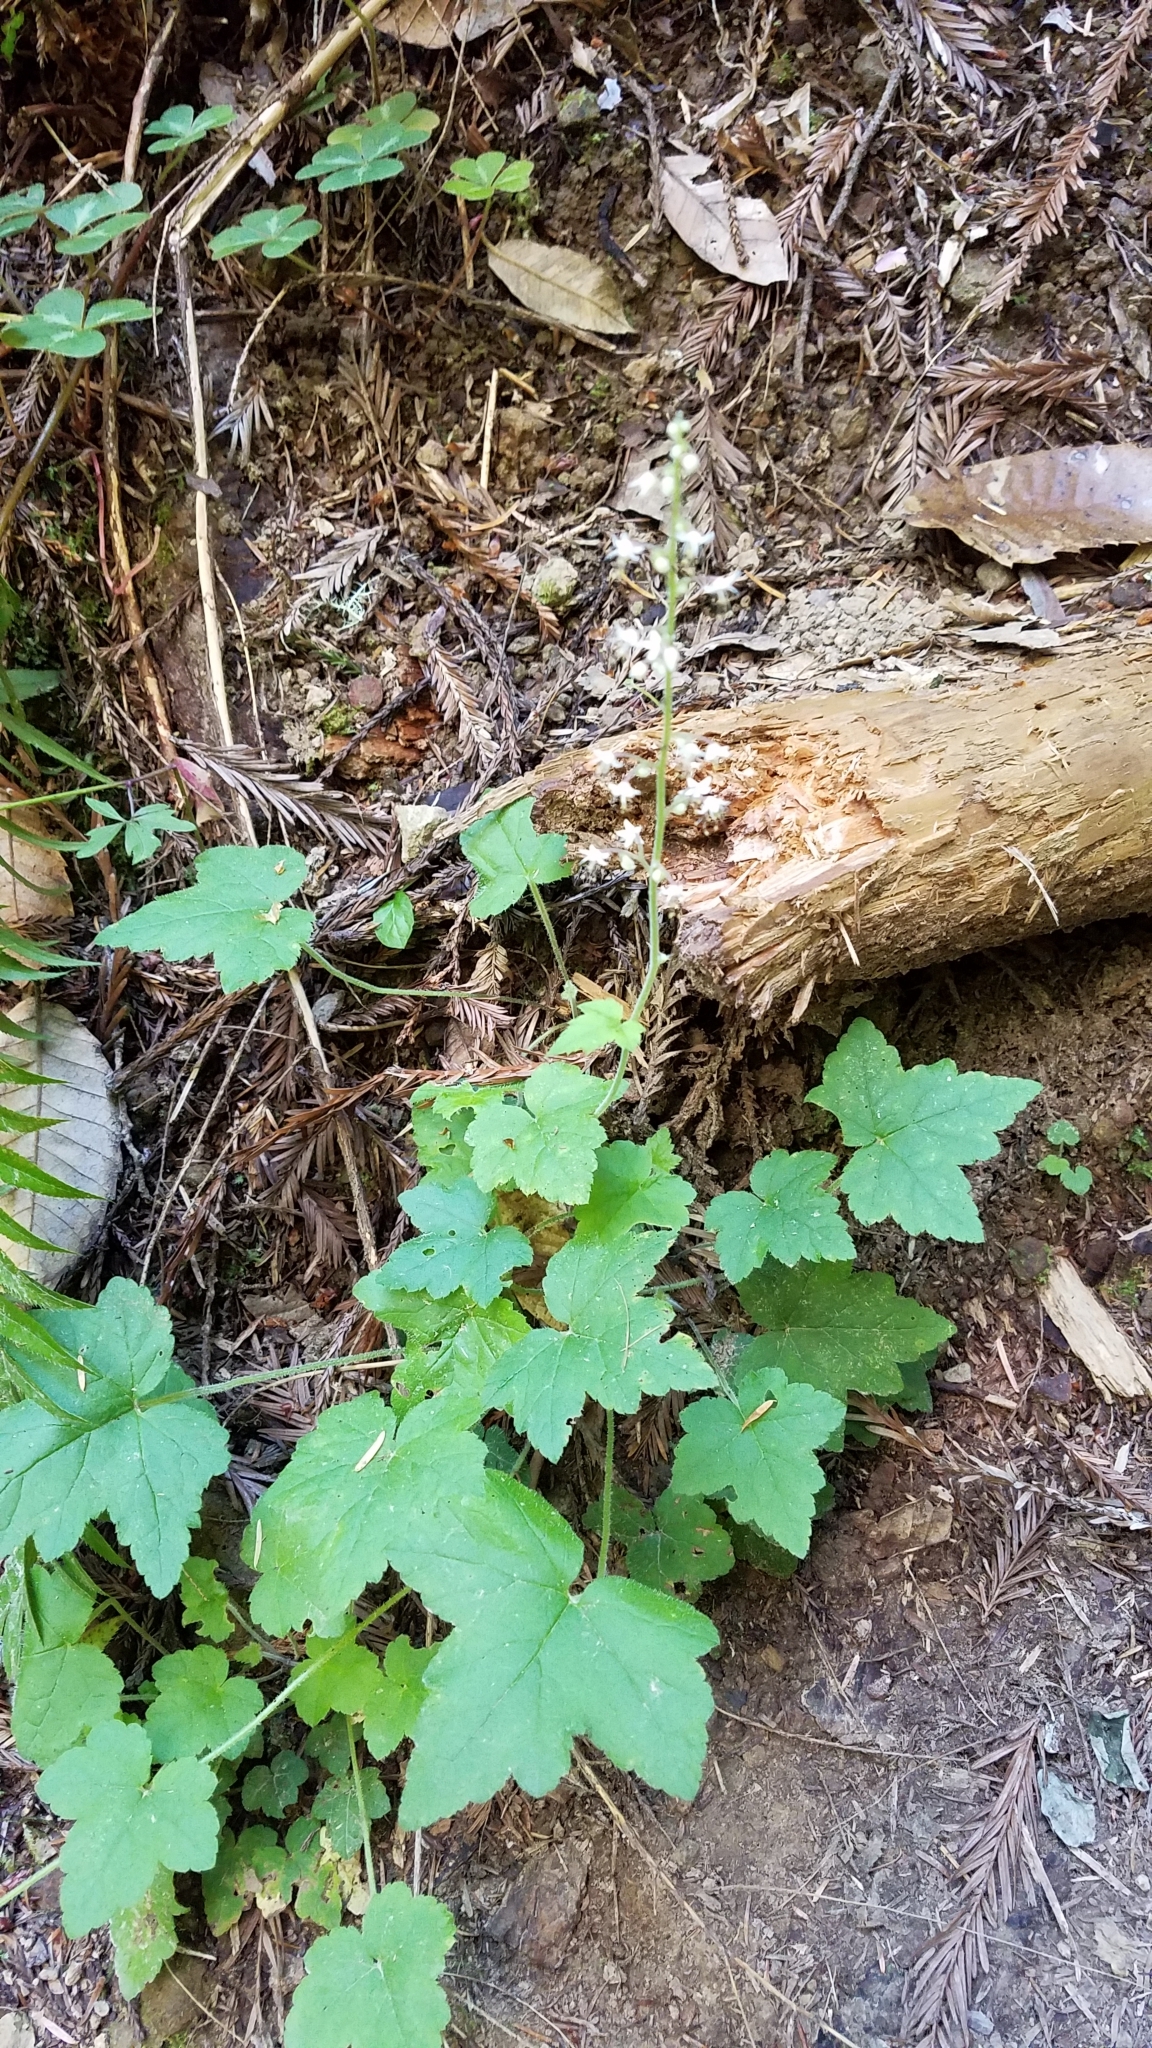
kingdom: Plantae
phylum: Tracheophyta
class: Magnoliopsida
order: Saxifragales
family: Saxifragaceae
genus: Tiarella
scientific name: Tiarella trifoliata
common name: Sugar-scoop
